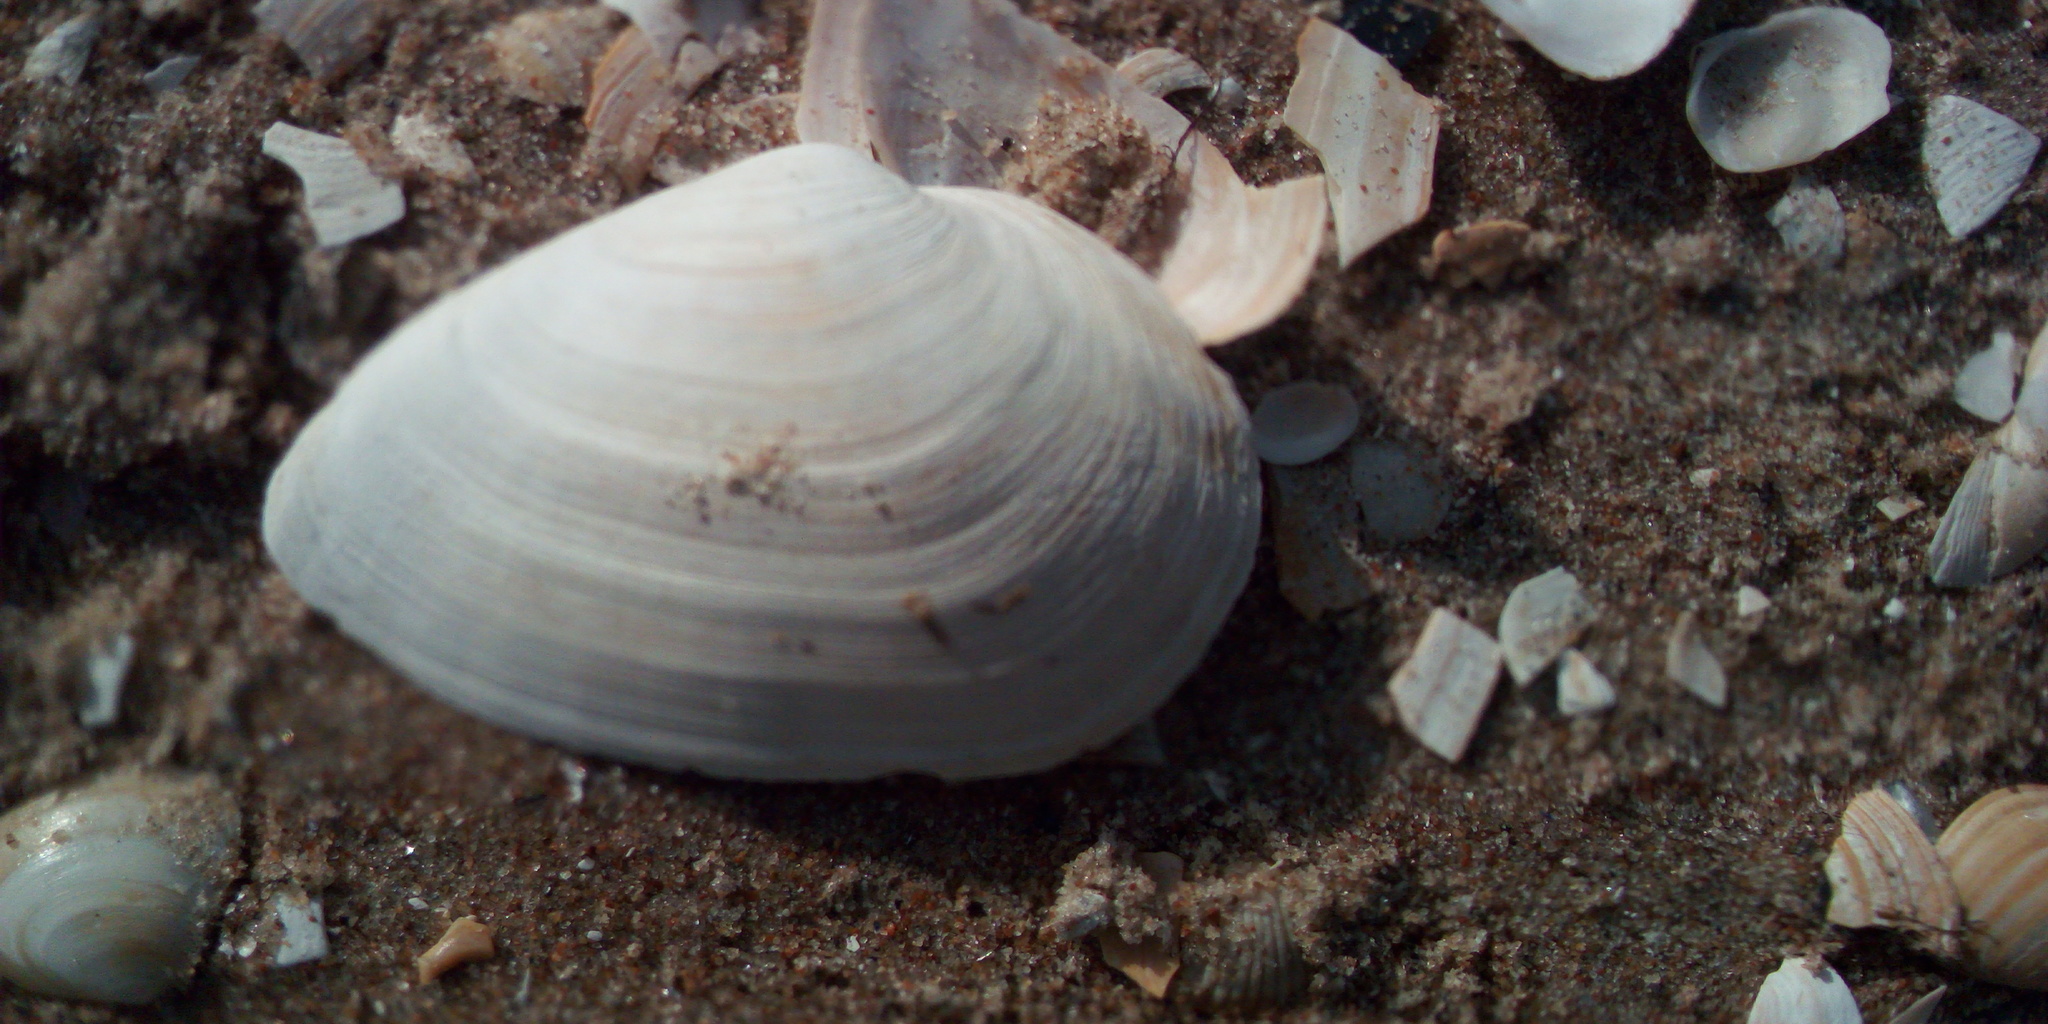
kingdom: Animalia
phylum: Mollusca
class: Bivalvia
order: Myida
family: Myidae
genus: Mya
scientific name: Mya arenaria
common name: Soft-shelled clam
